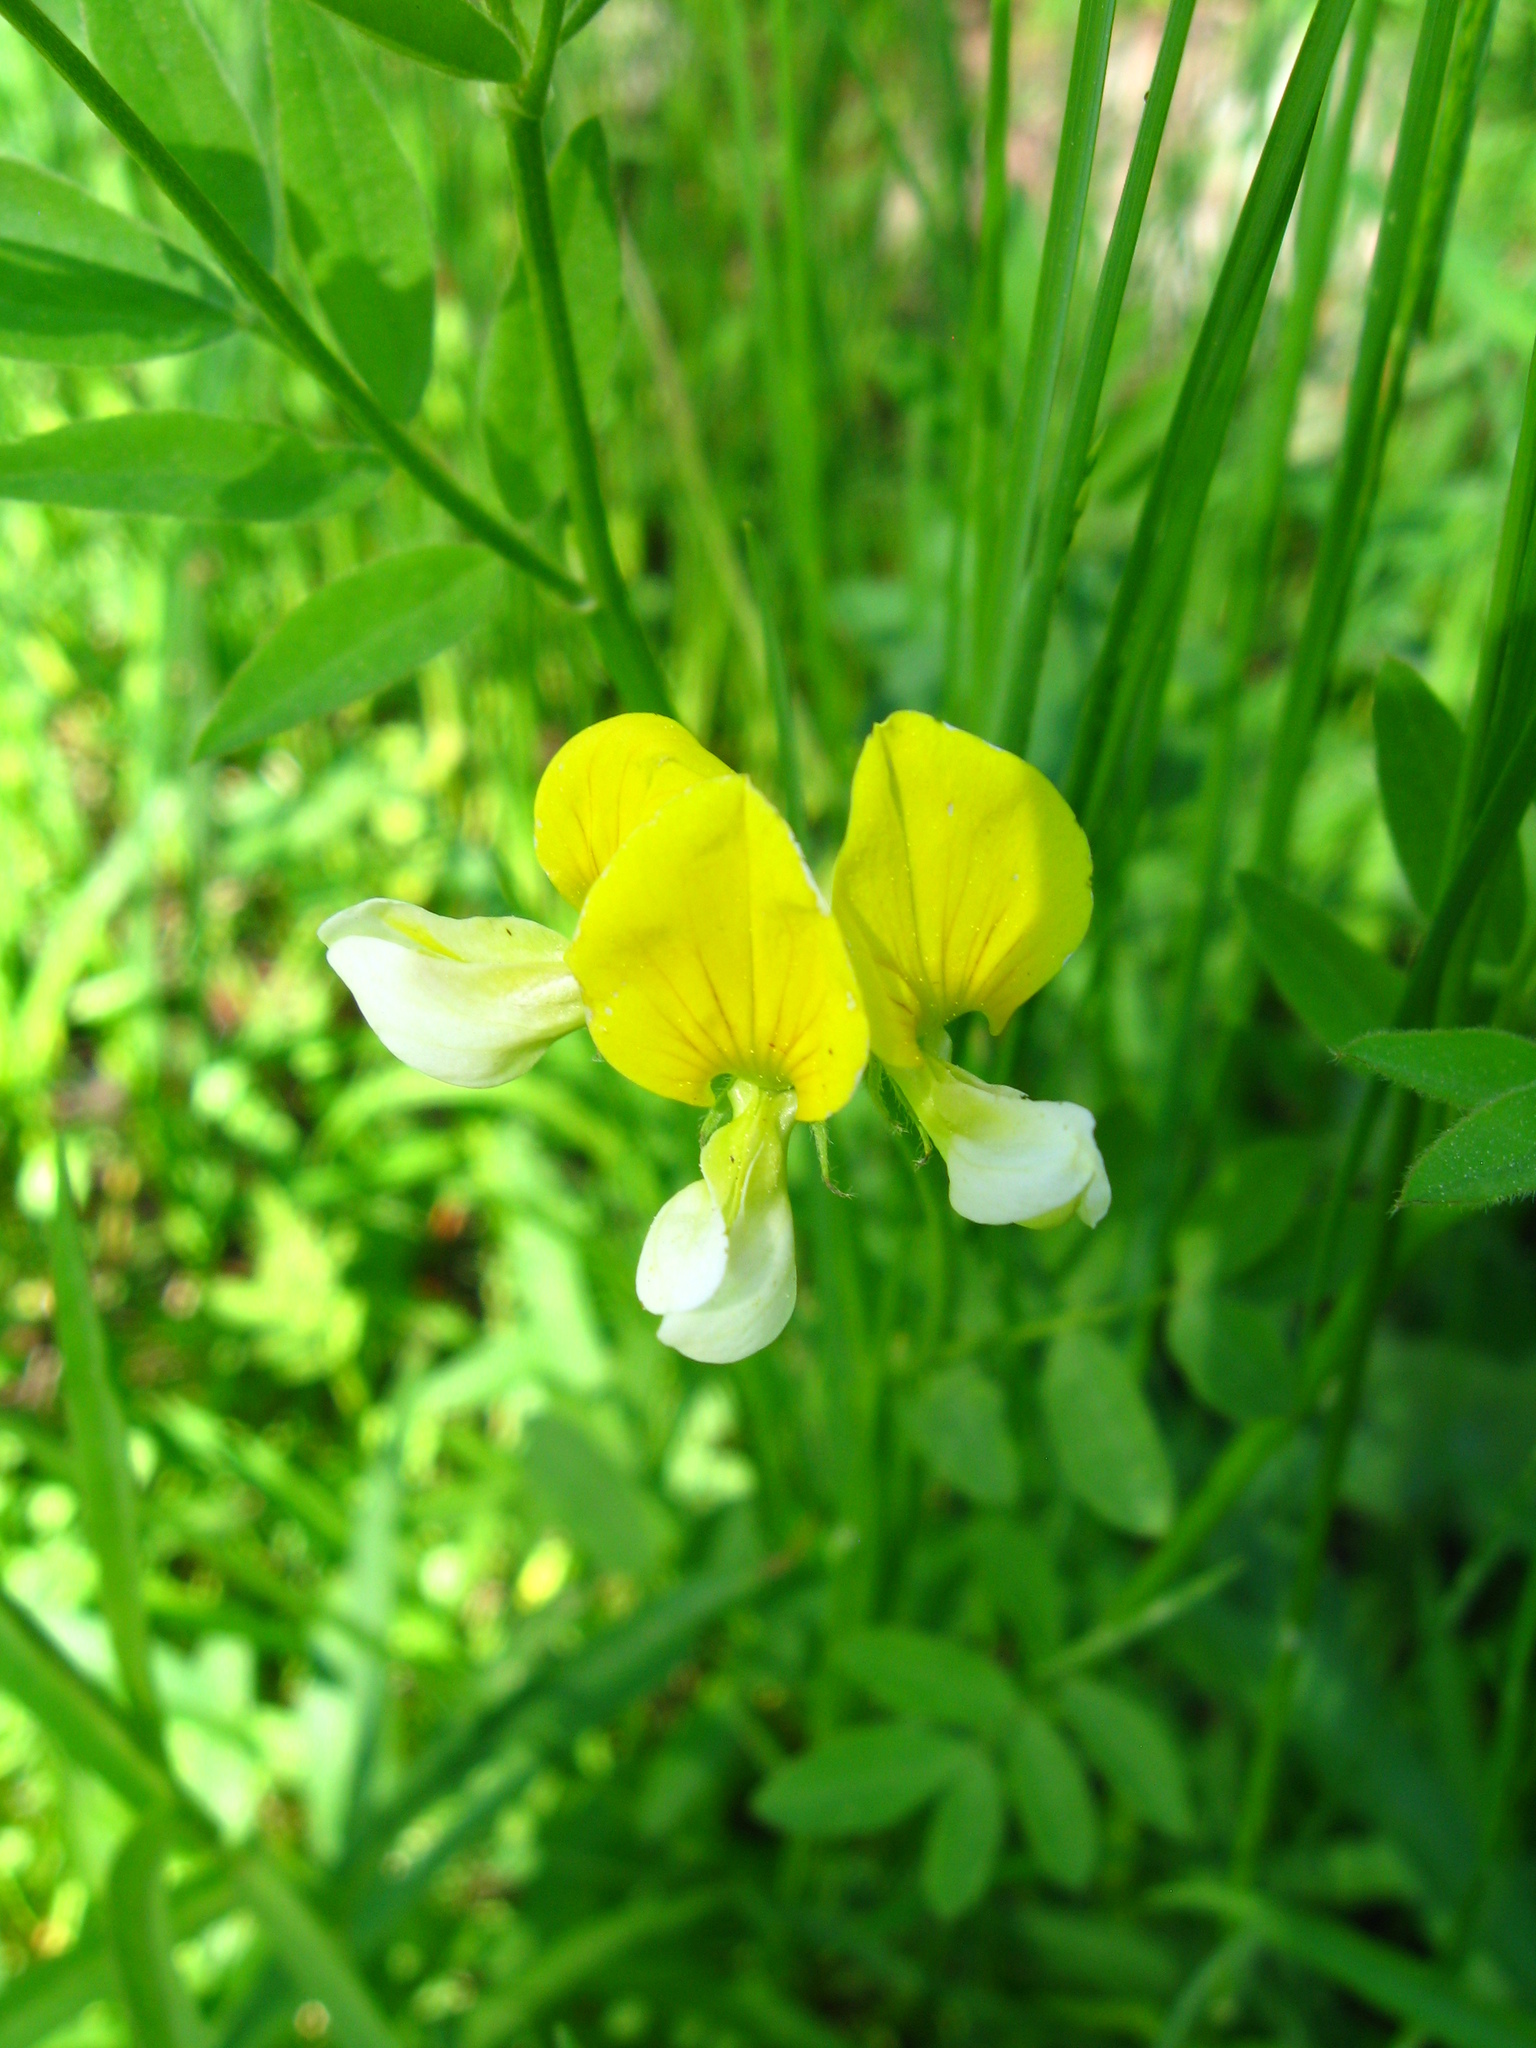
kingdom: Plantae
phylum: Tracheophyta
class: Magnoliopsida
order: Fabales
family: Fabaceae
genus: Hosackia
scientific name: Hosackia oblongifolia
